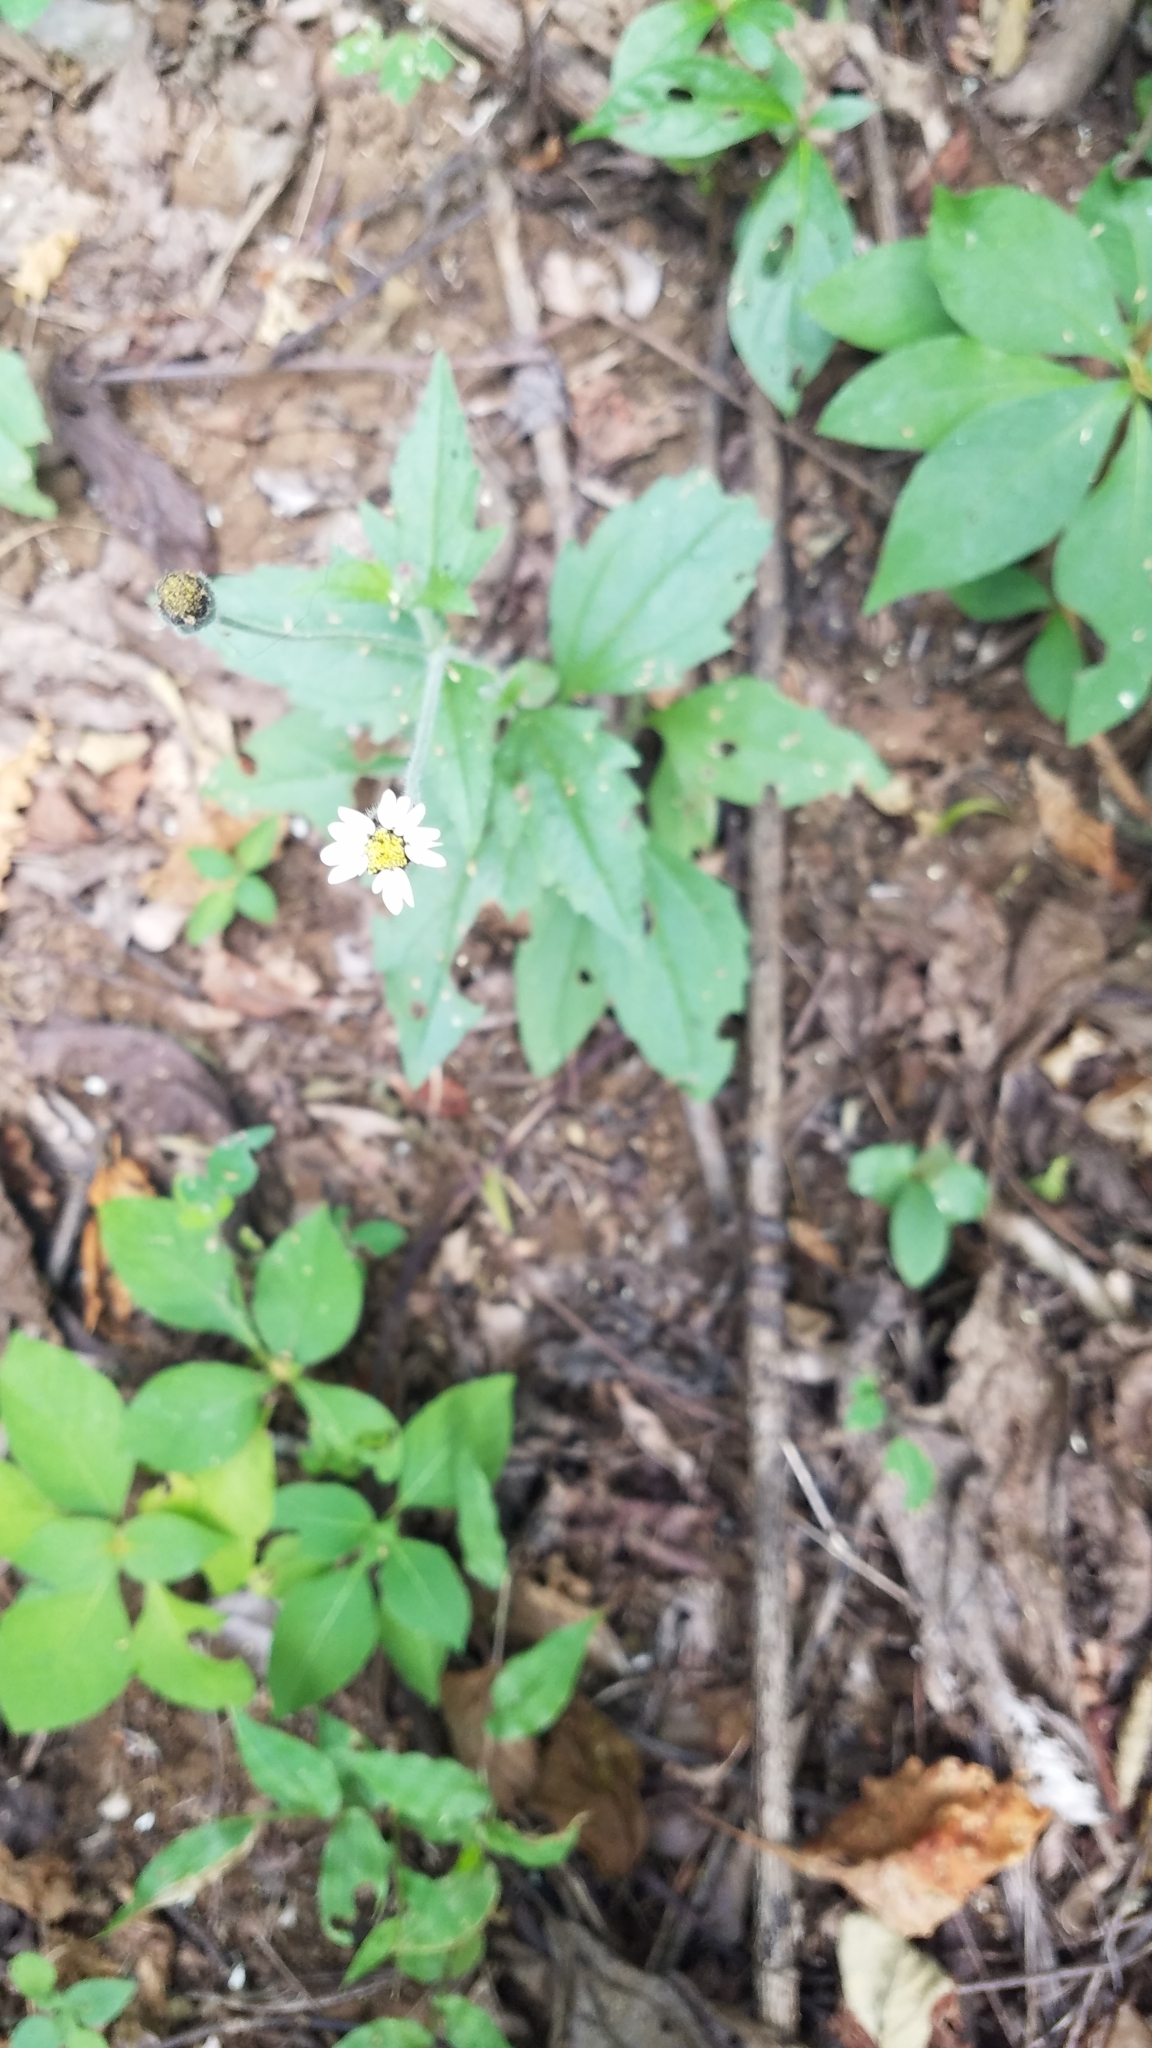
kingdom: Plantae
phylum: Tracheophyta
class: Magnoliopsida
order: Asterales
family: Asteraceae
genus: Tridax
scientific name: Tridax procumbens
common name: Coatbuttons
